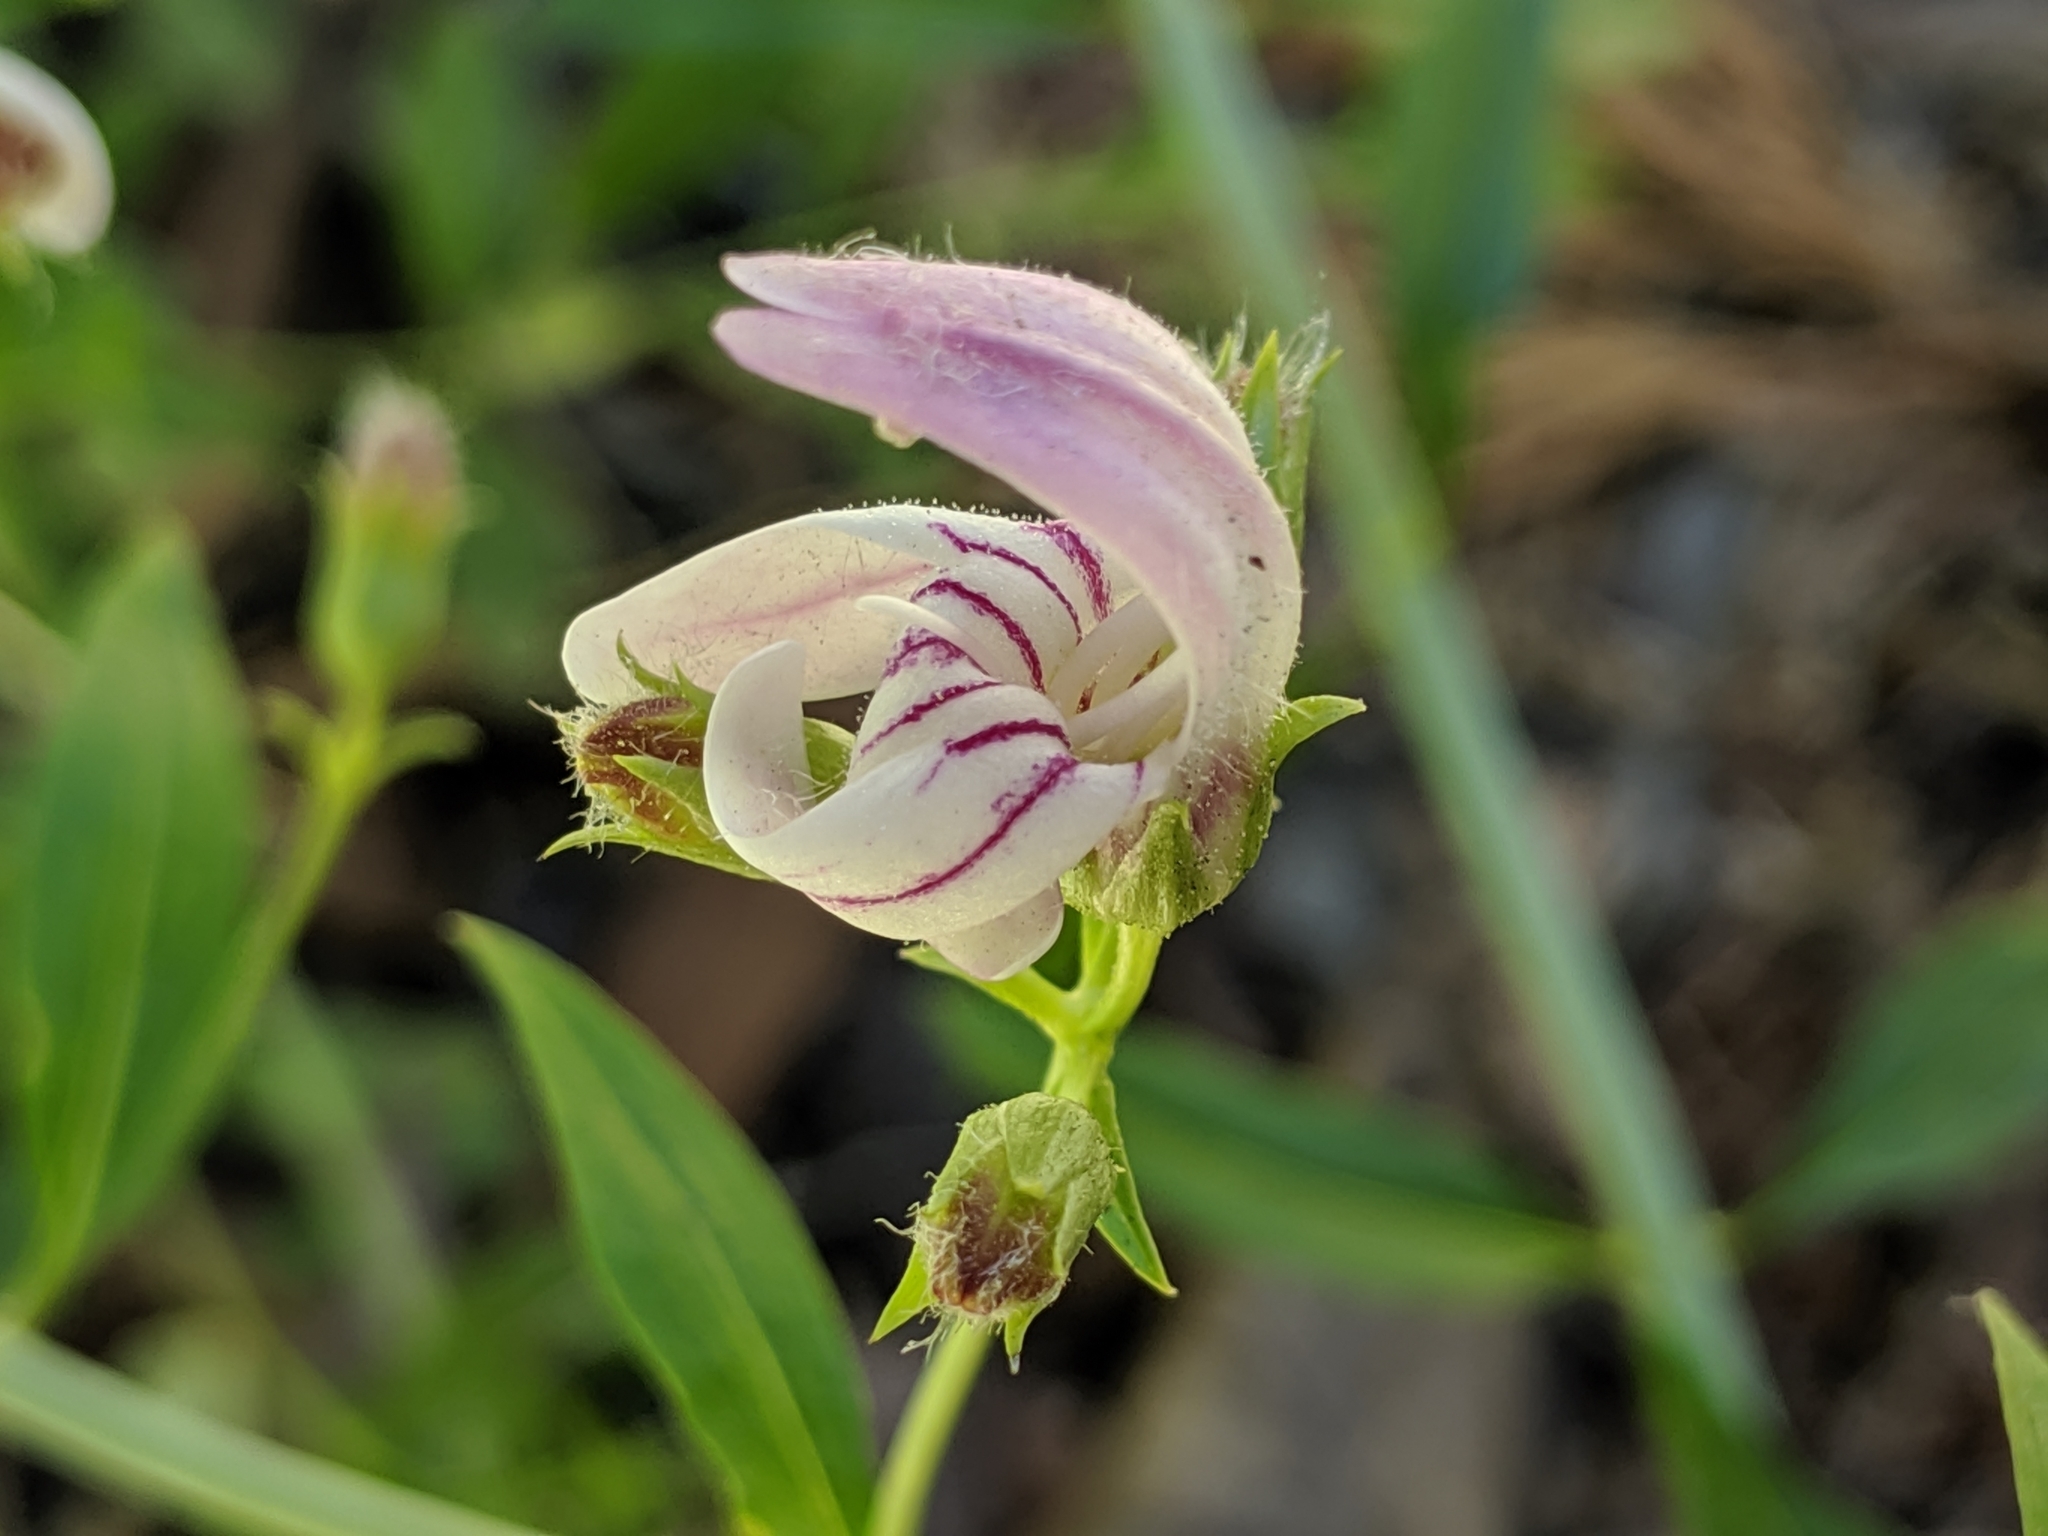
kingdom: Plantae
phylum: Tracheophyta
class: Magnoliopsida
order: Lamiales
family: Plantaginaceae
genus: Keckiella
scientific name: Keckiella breviflora
